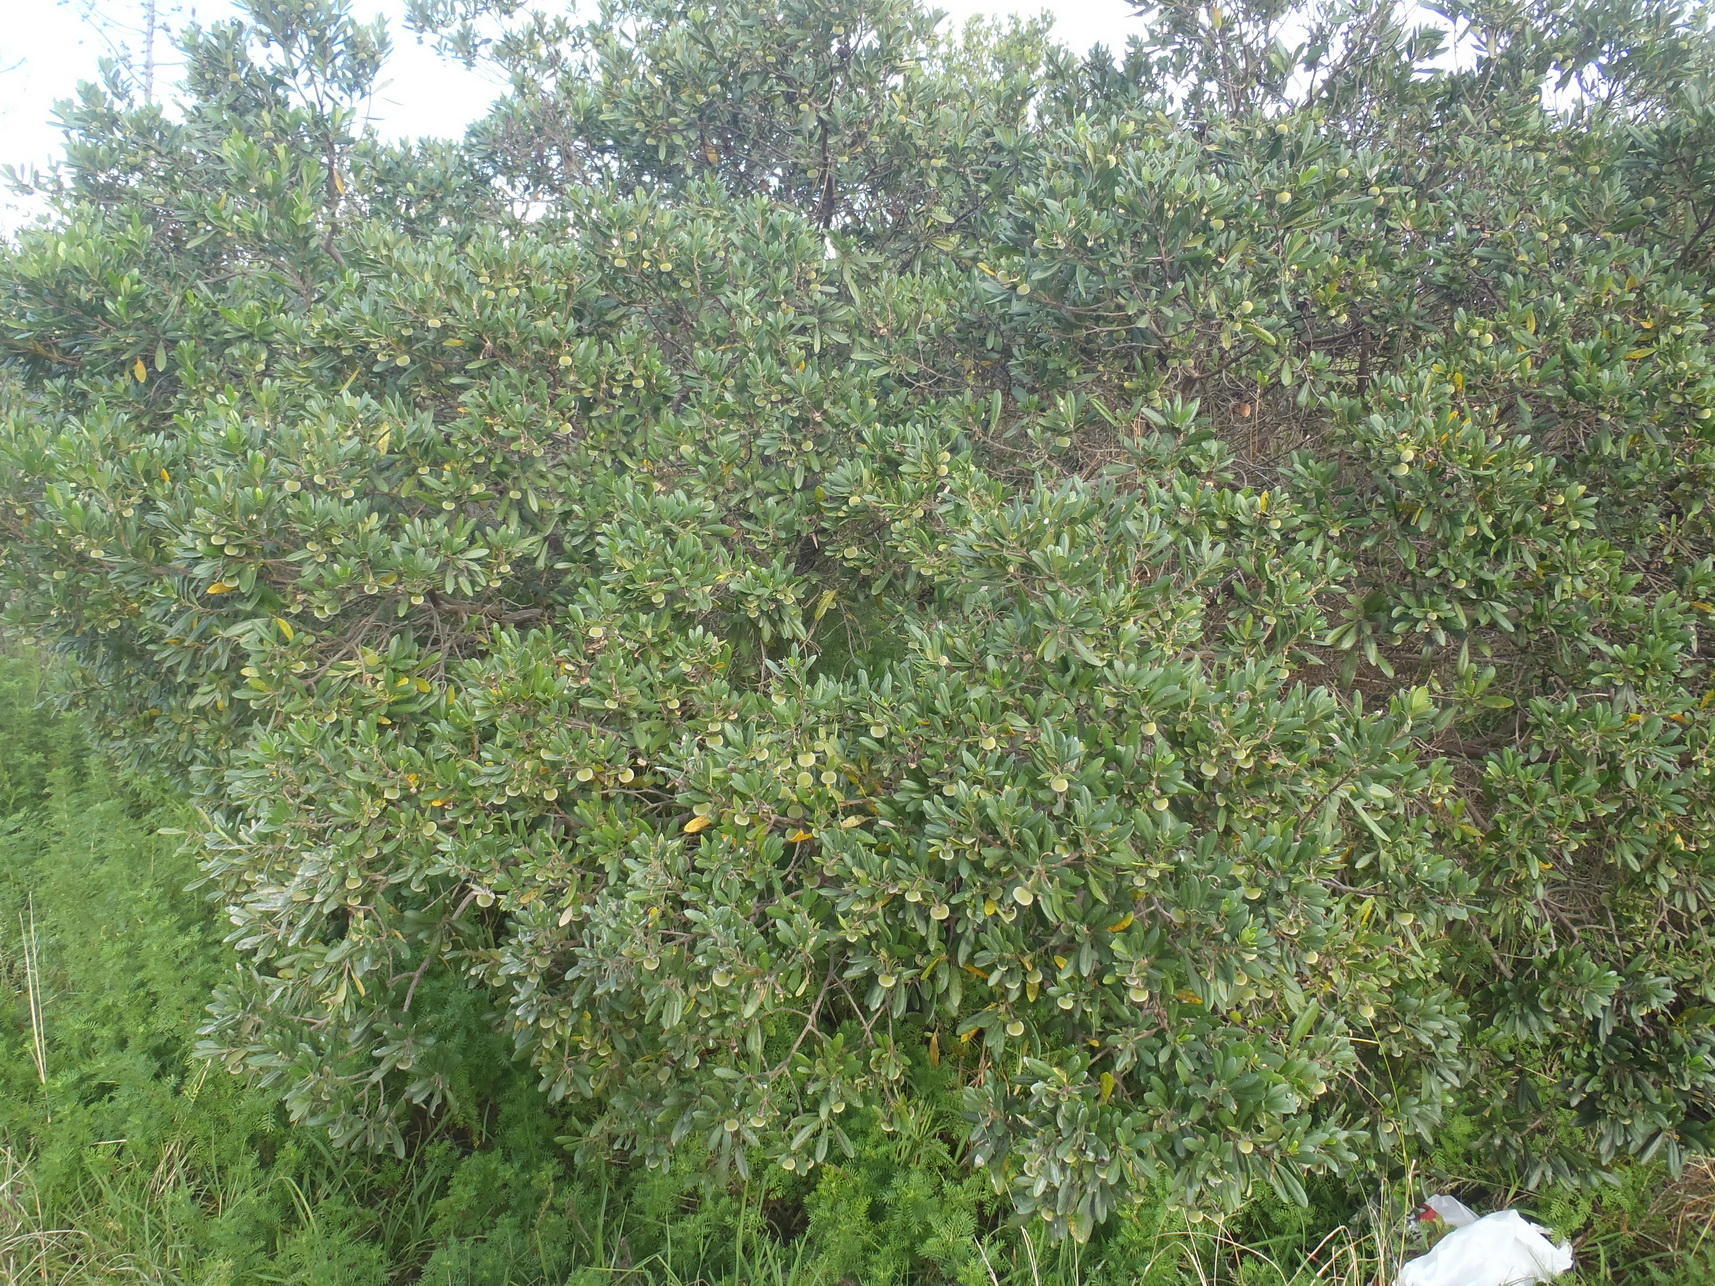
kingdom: Plantae
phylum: Tracheophyta
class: Magnoliopsida
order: Ericales
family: Ebenaceae
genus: Diospyros
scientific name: Diospyros dichrophylla
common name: Common star-apple
